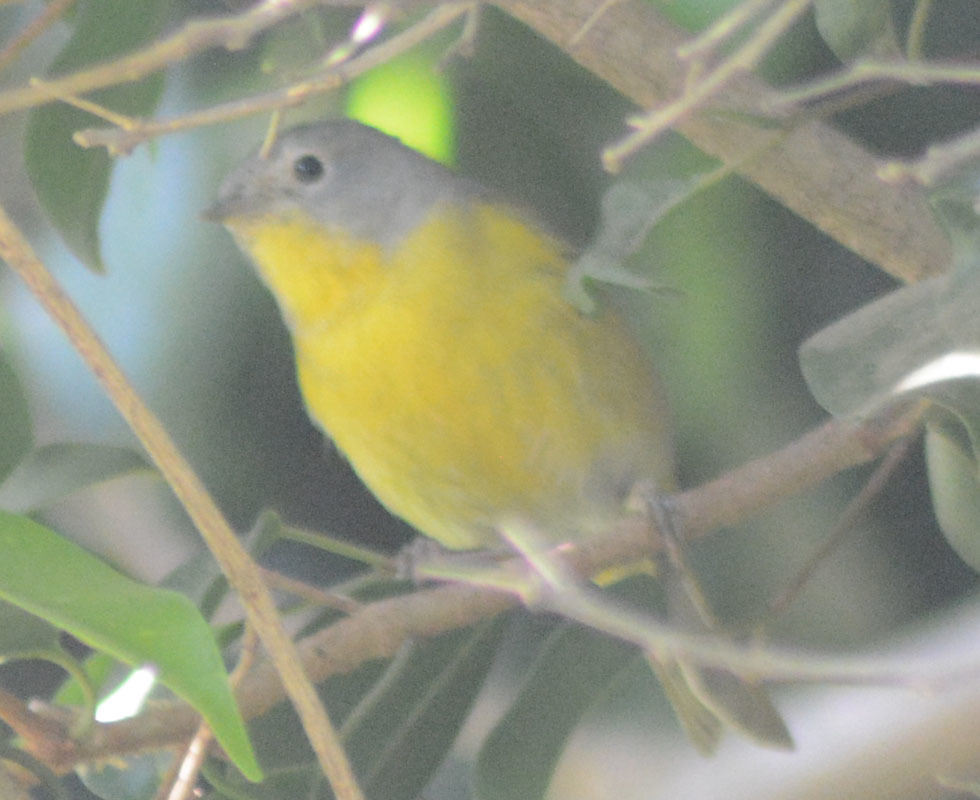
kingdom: Animalia
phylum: Chordata
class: Aves
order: Passeriformes
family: Parulidae
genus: Leiothlypis
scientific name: Leiothlypis ruficapilla
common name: Nashville warbler
